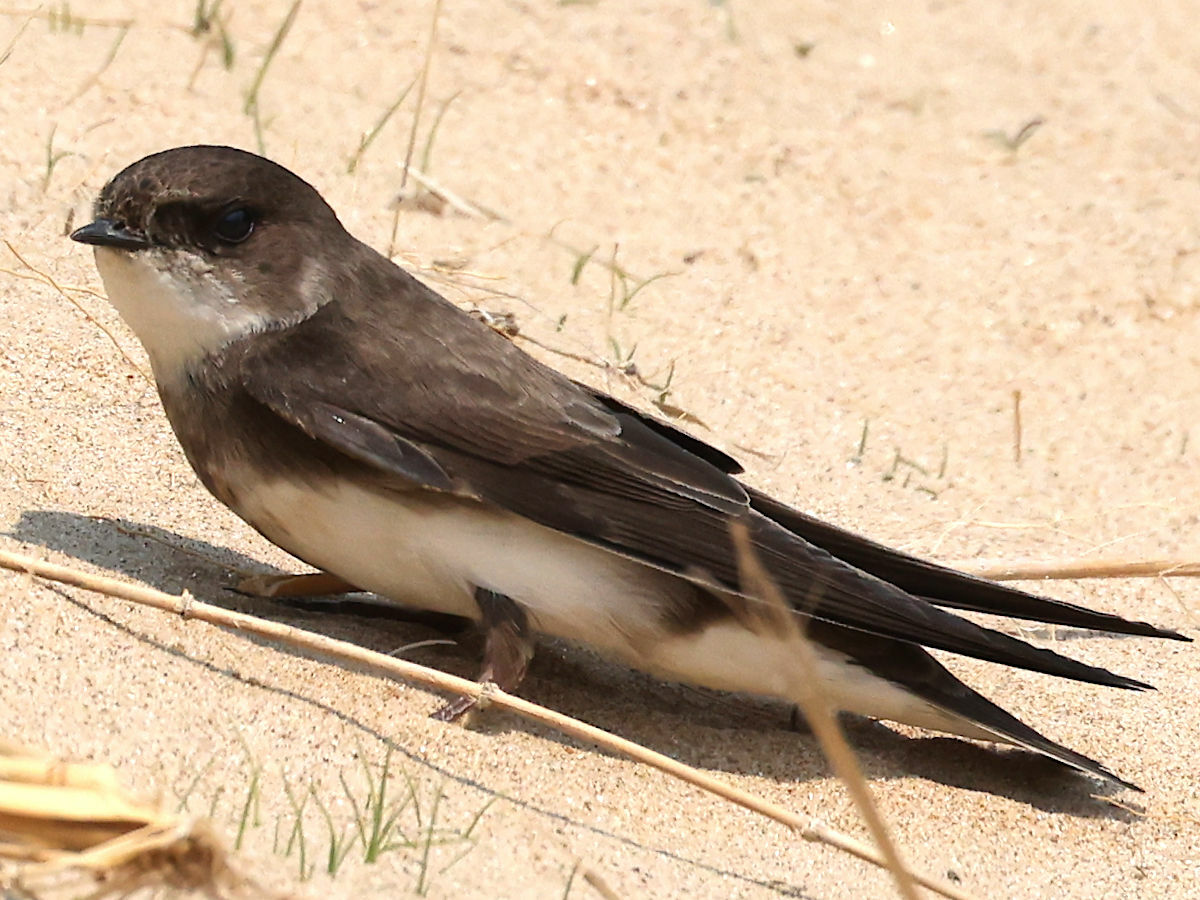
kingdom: Animalia
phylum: Chordata
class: Aves
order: Passeriformes
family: Hirundinidae
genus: Riparia
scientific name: Riparia riparia
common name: Sand martin
